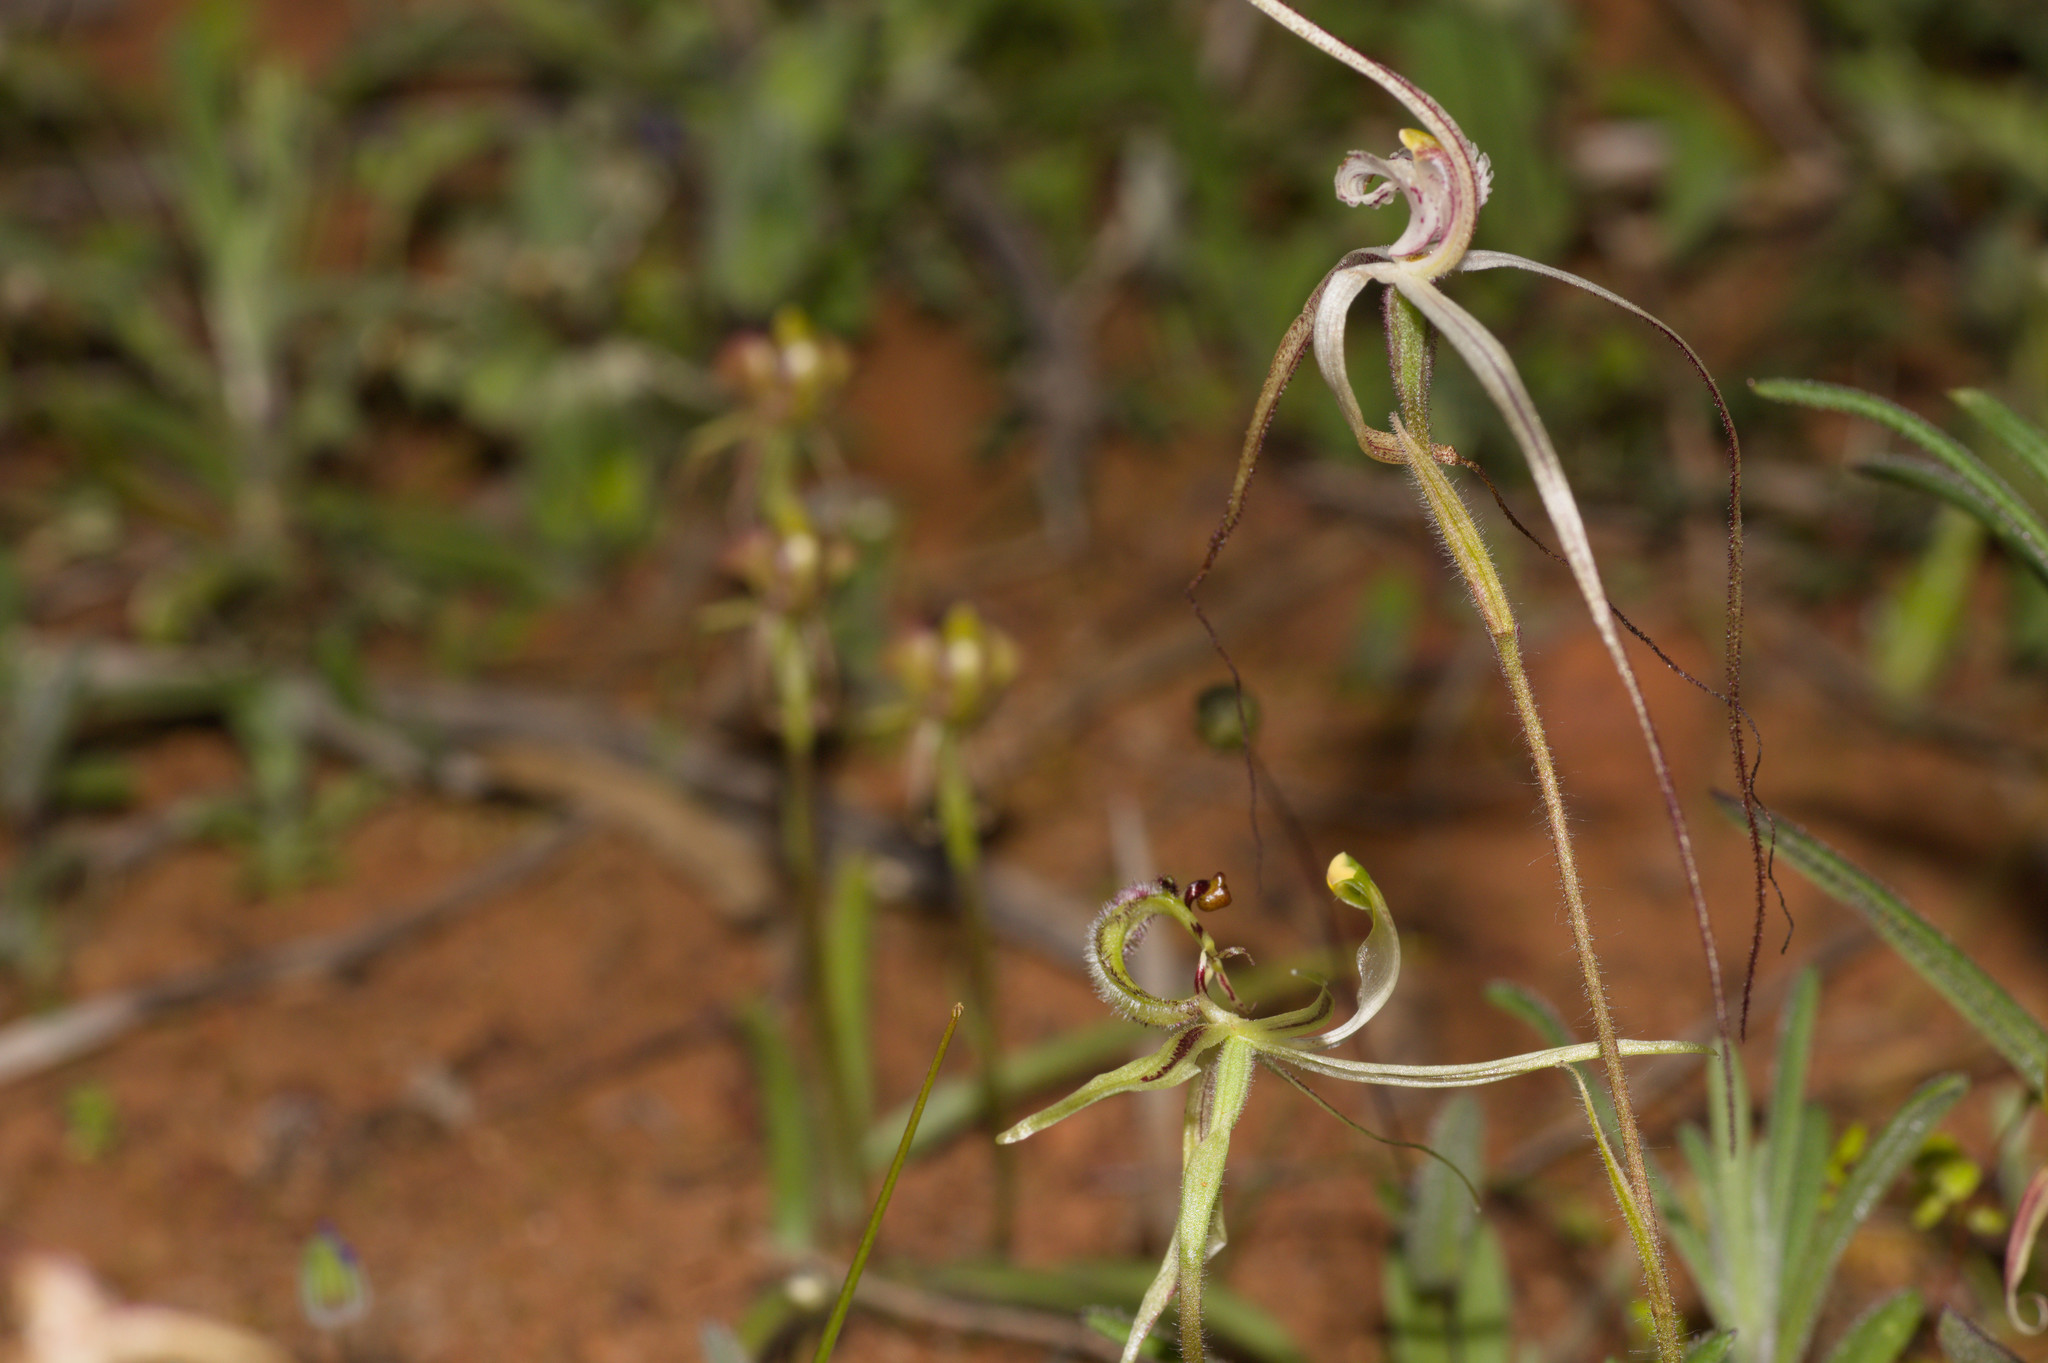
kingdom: Plantae
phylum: Tracheophyta
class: Liliopsida
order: Asparagales
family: Orchidaceae
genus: Caladenia
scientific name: Caladenia mesocera
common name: Narrow-lipped dragon orchid
